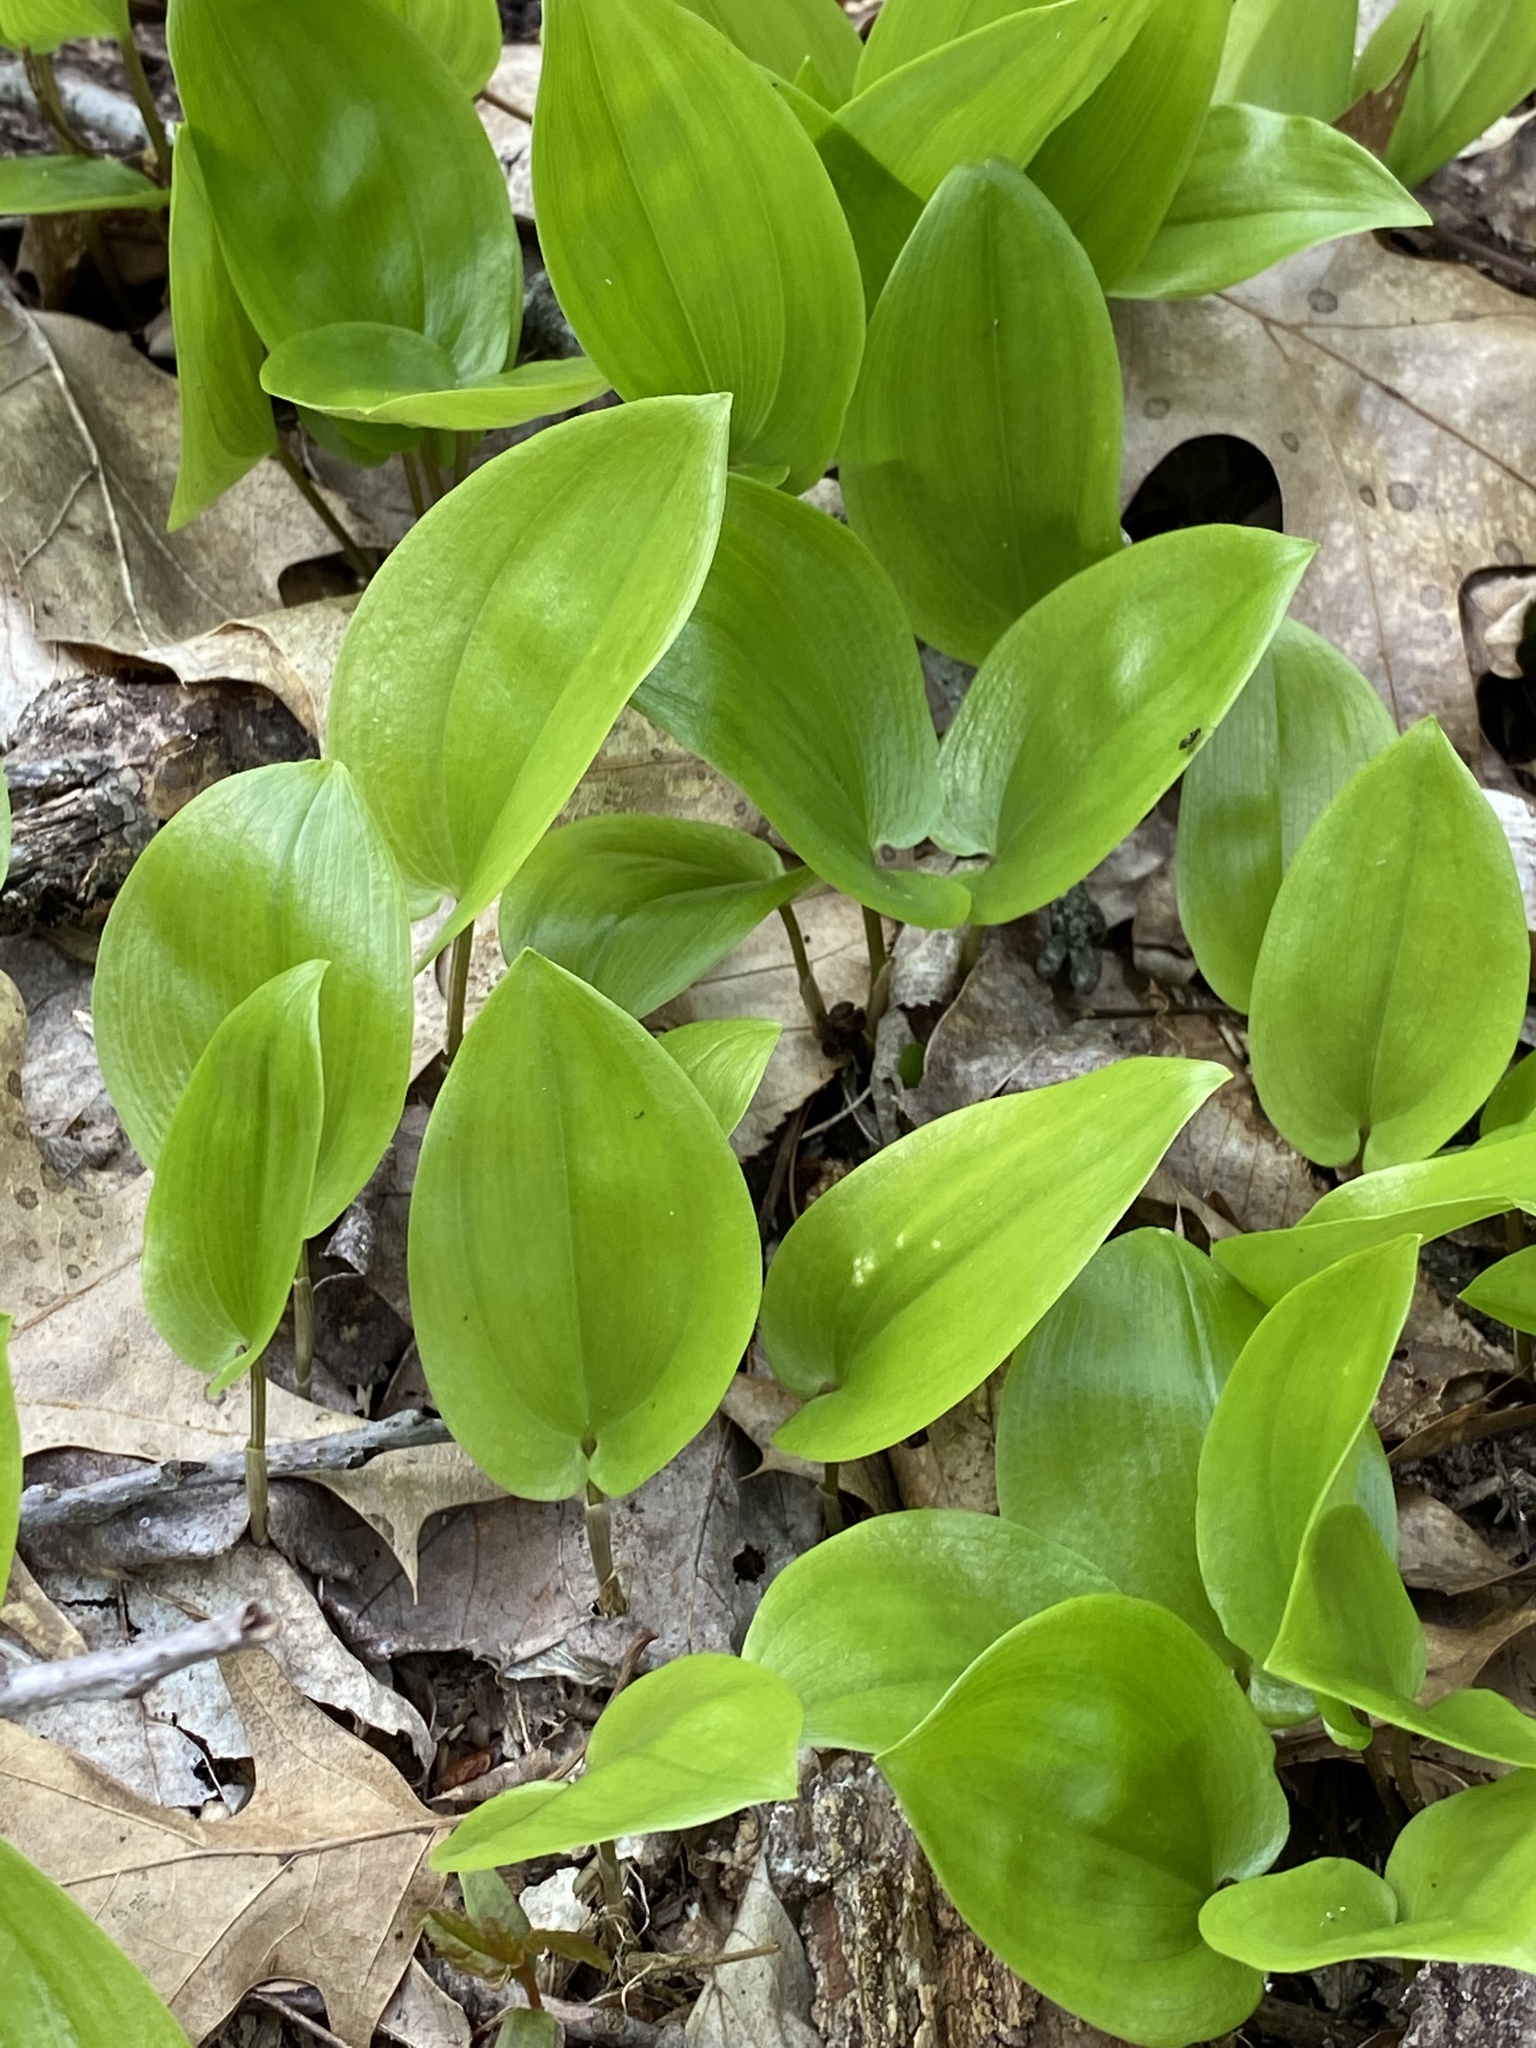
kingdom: Plantae
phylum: Tracheophyta
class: Liliopsida
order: Asparagales
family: Asparagaceae
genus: Maianthemum
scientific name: Maianthemum canadense
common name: False lily-of-the-valley
